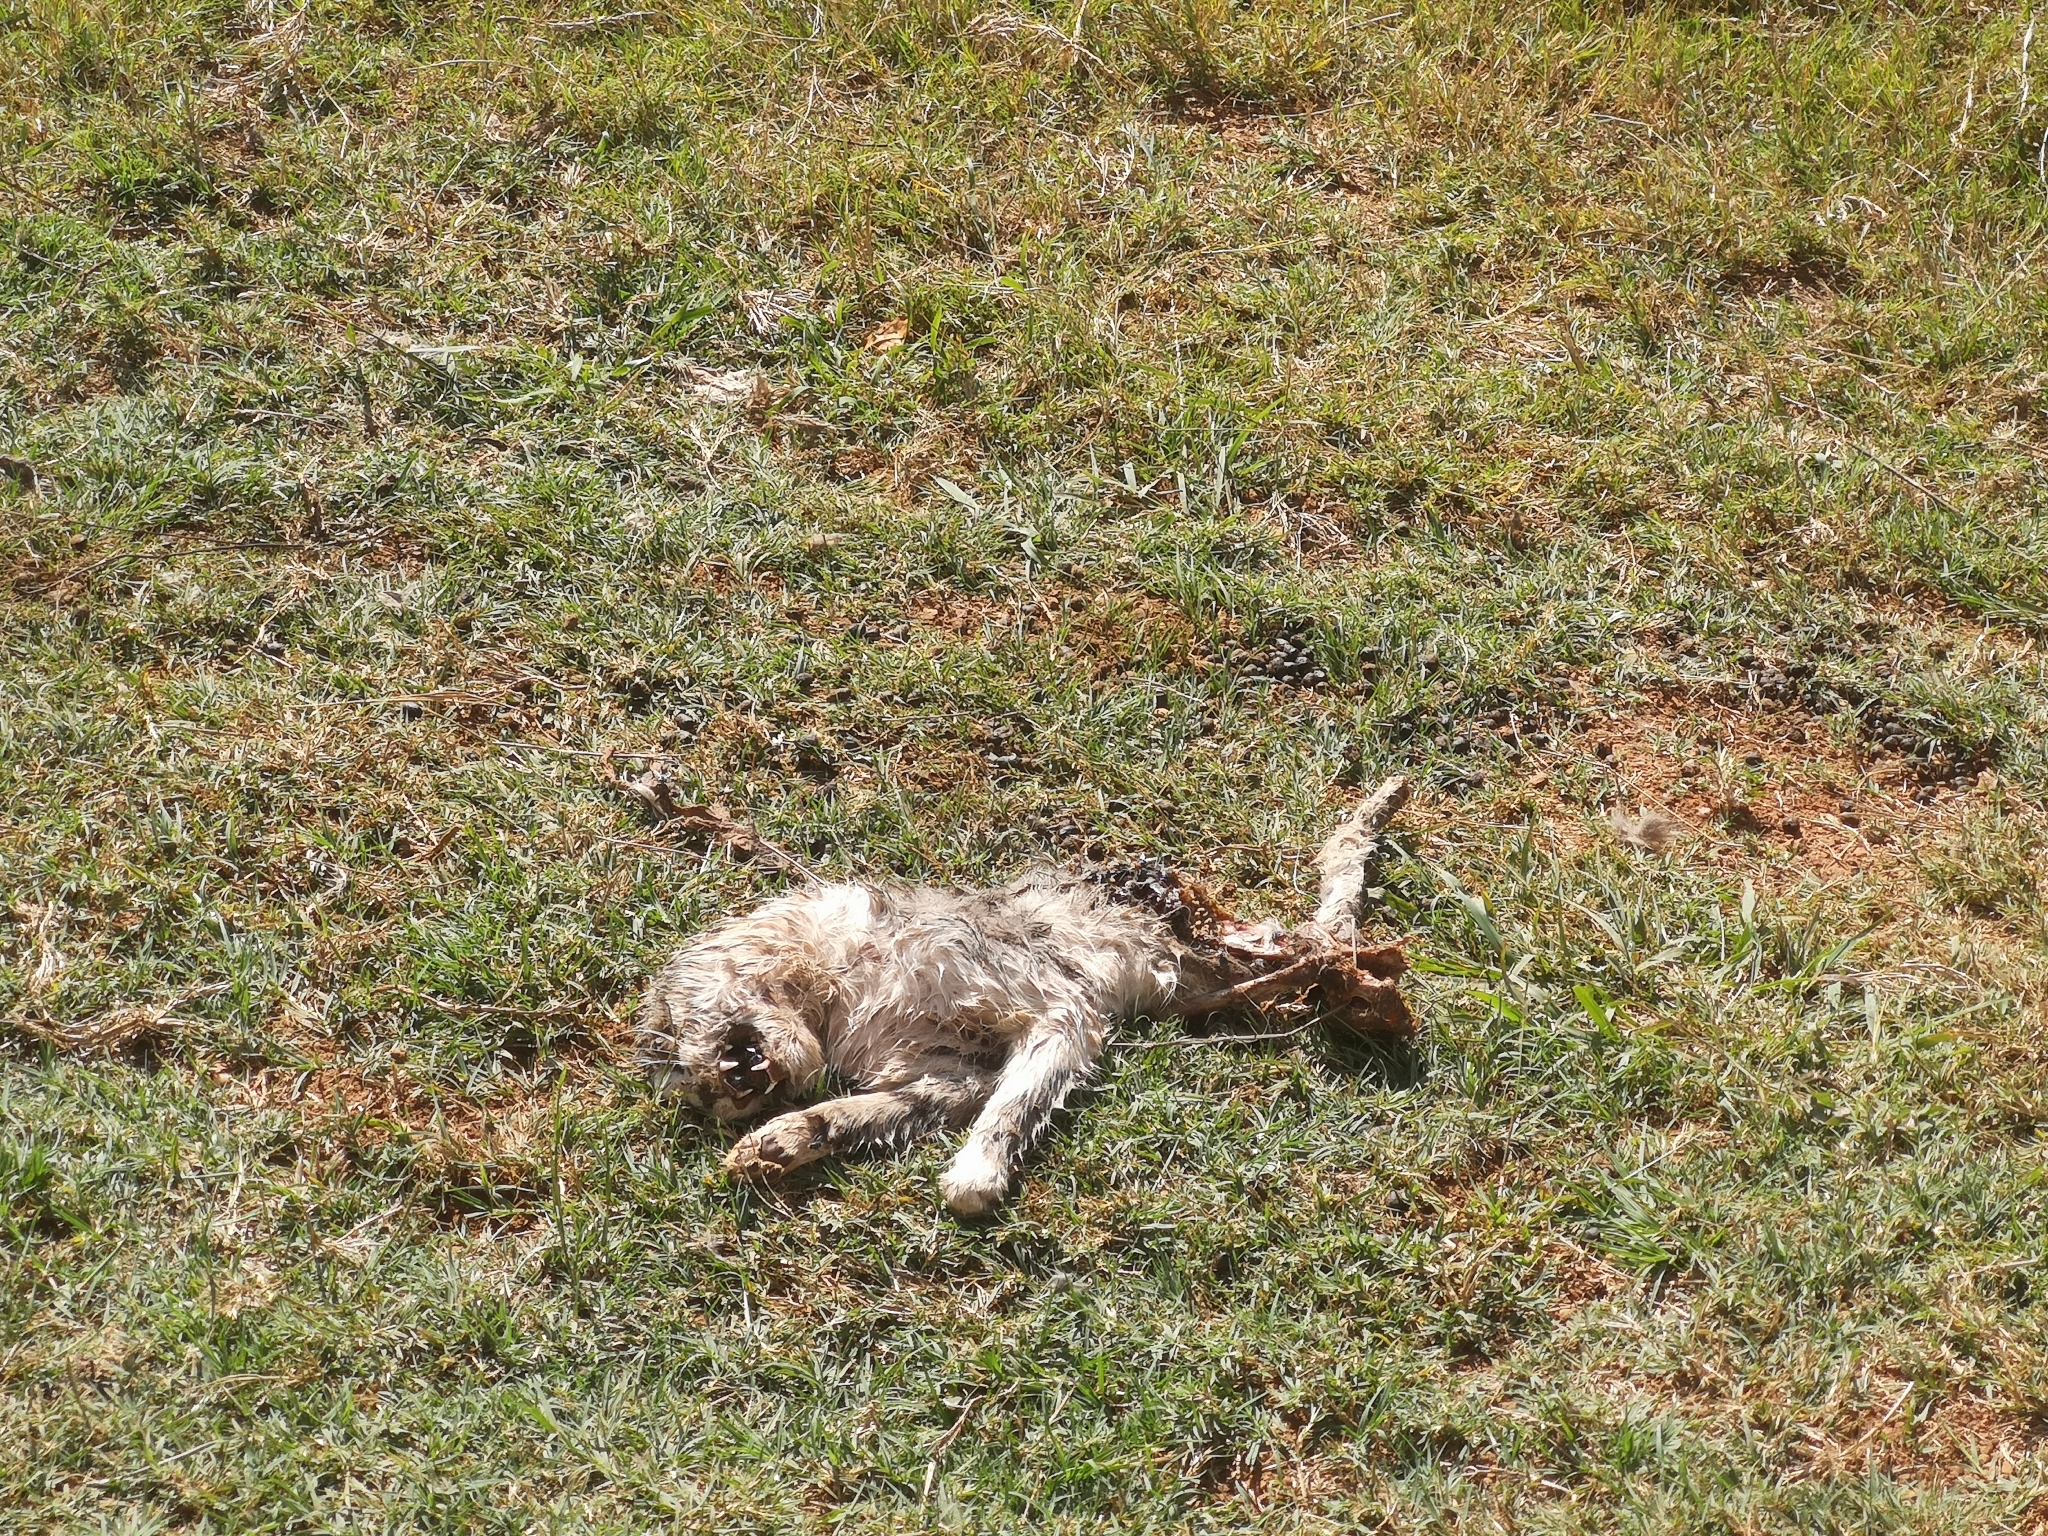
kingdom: Animalia
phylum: Chordata
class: Mammalia
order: Carnivora
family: Felidae
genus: Acinonyx
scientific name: Acinonyx jubatus
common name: Cheetah
